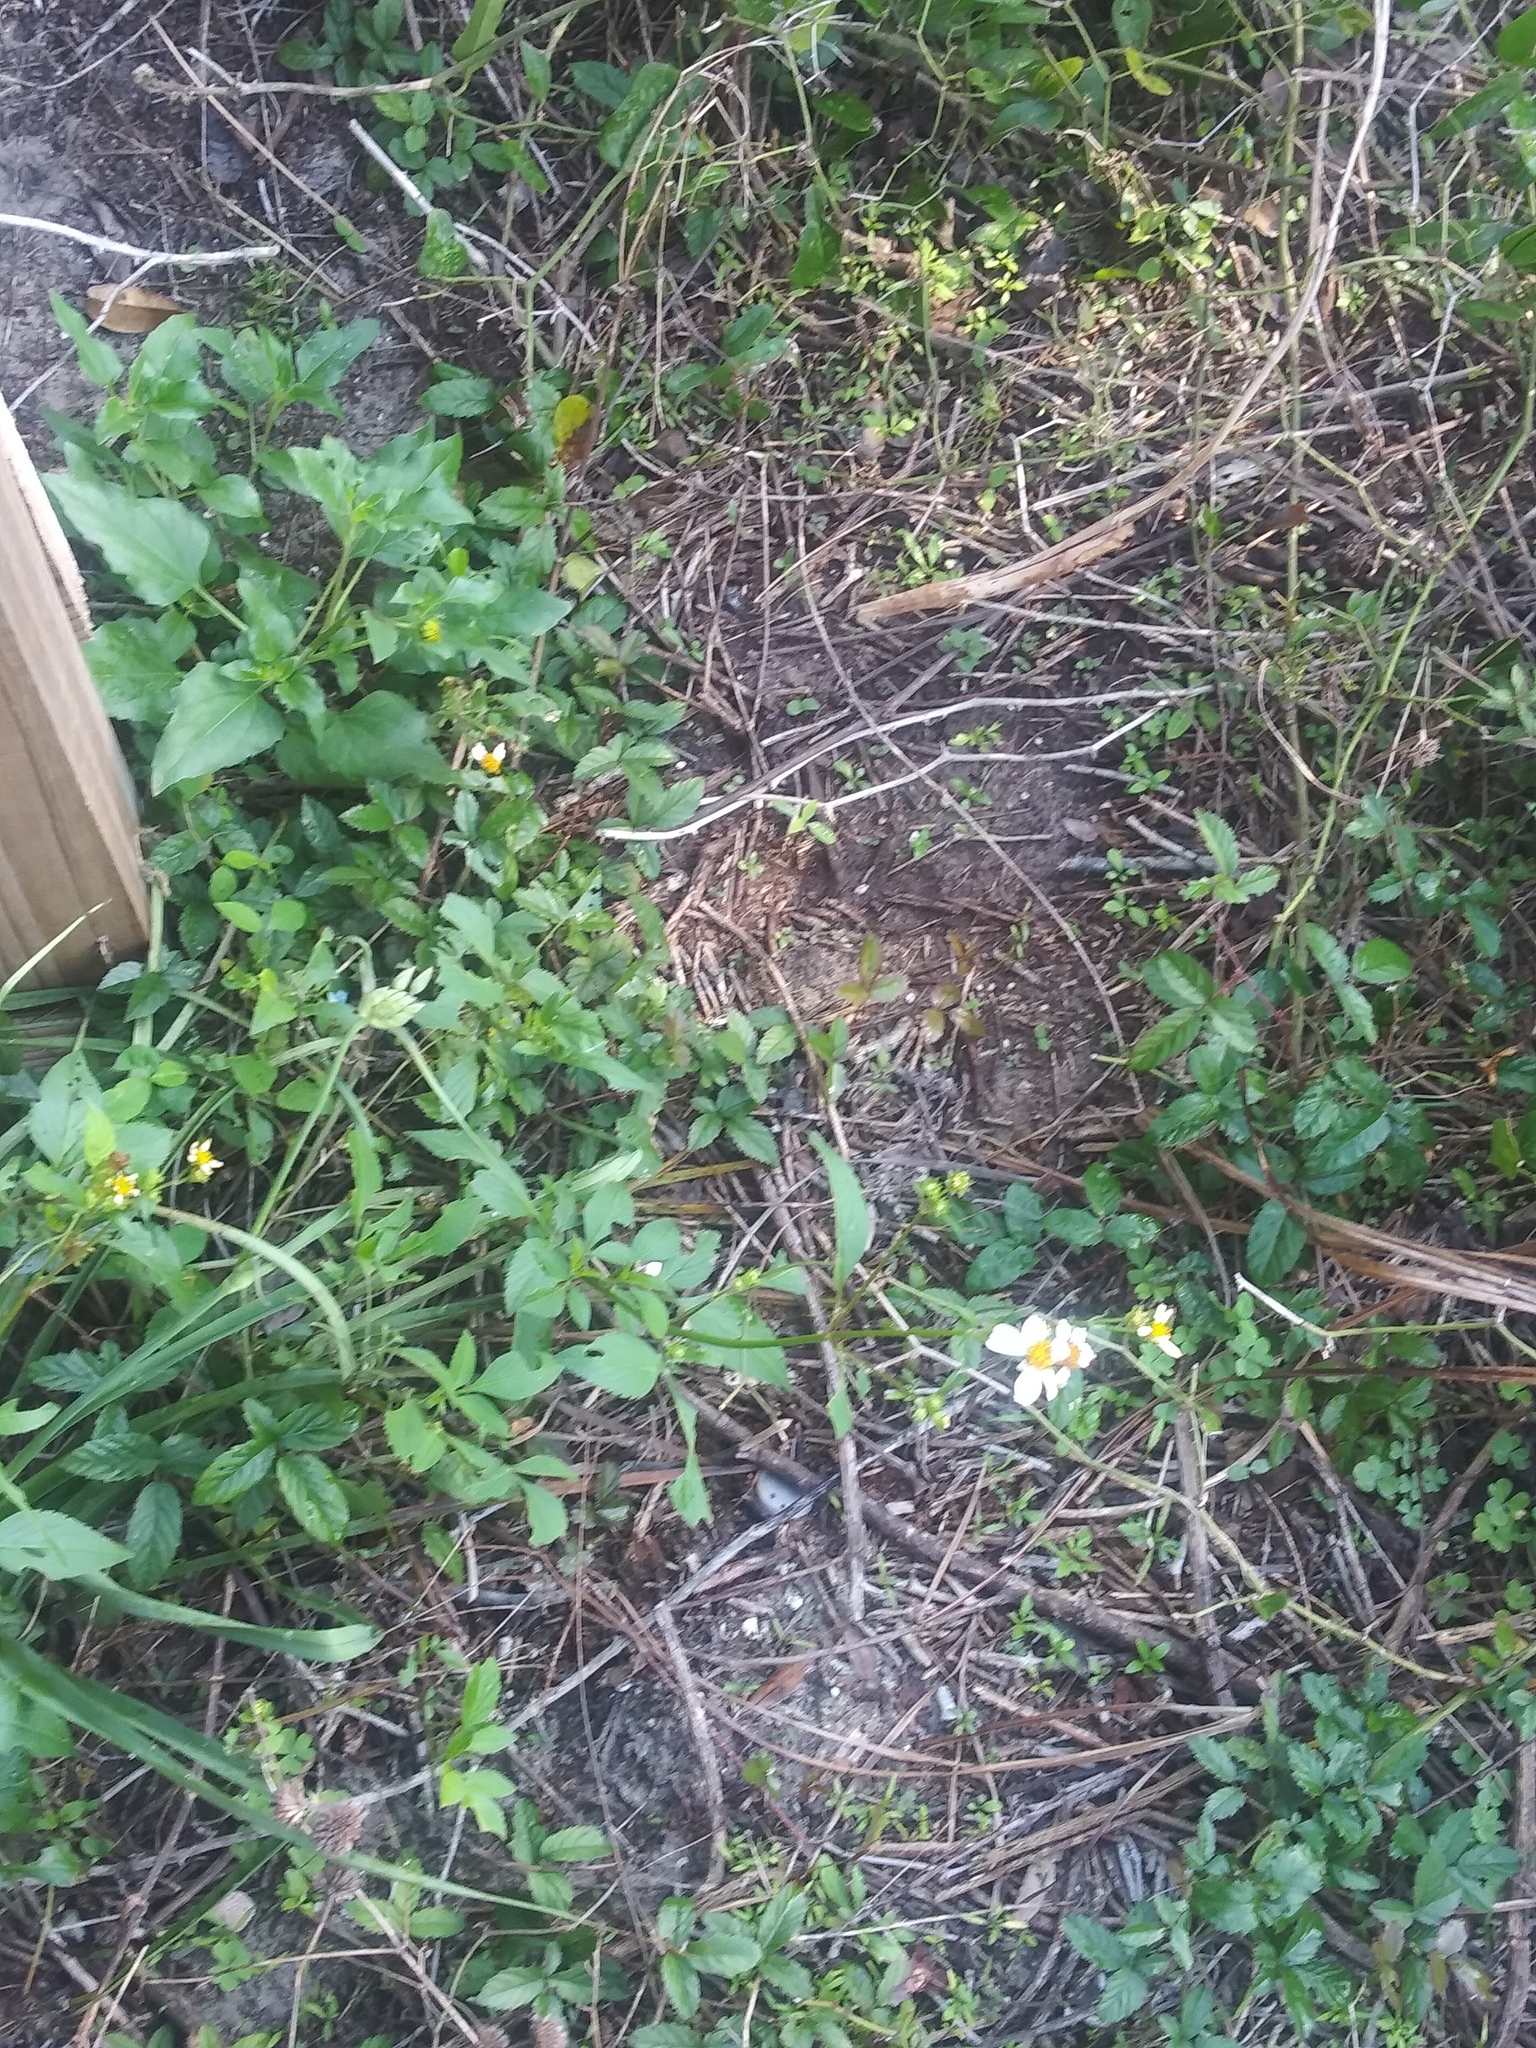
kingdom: Plantae
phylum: Tracheophyta
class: Magnoliopsida
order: Asterales
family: Asteraceae
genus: Bidens
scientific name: Bidens alba
